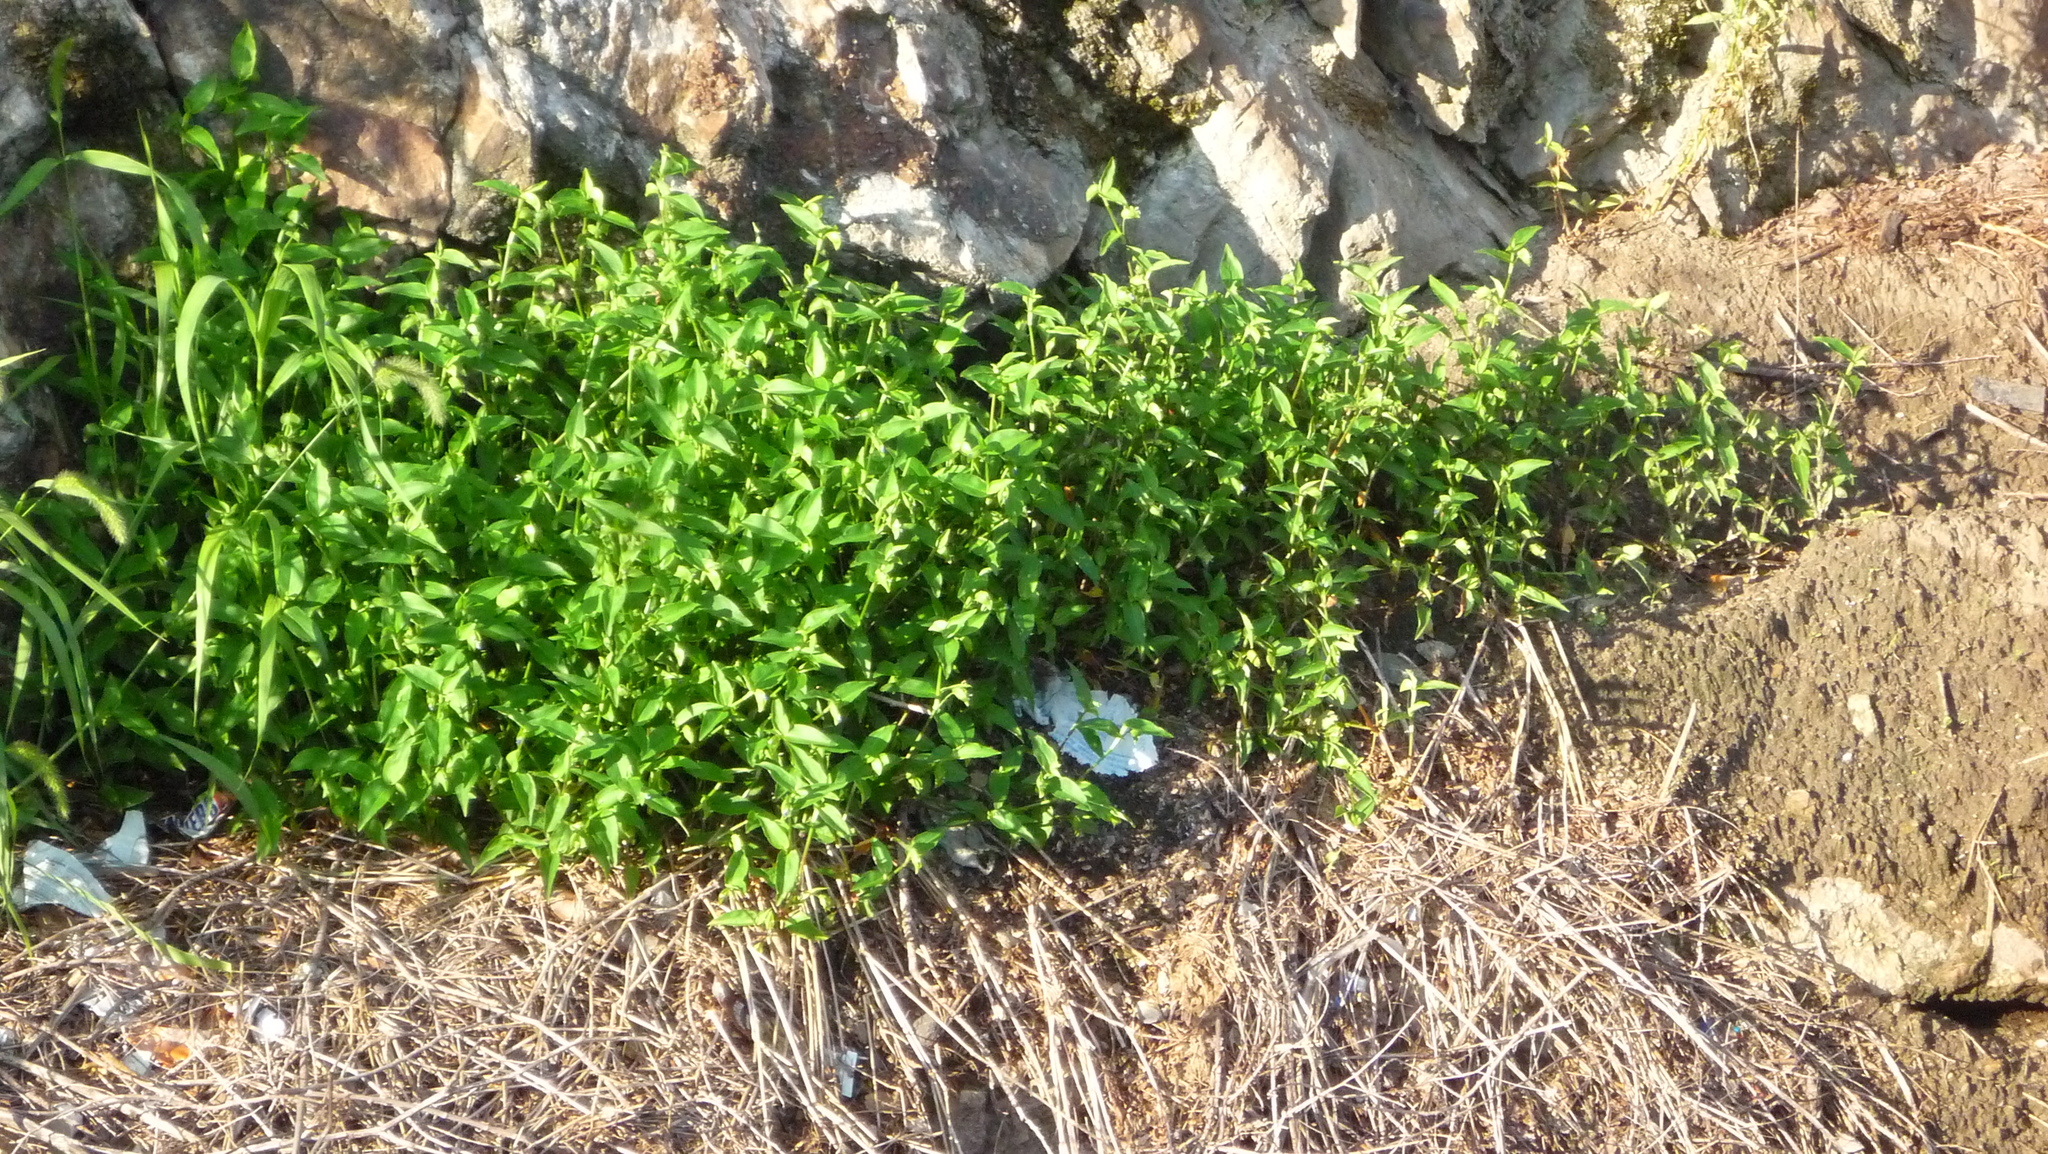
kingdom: Plantae
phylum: Tracheophyta
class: Liliopsida
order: Commelinales
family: Commelinaceae
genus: Commelina
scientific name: Commelina communis
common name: Asiatic dayflower
